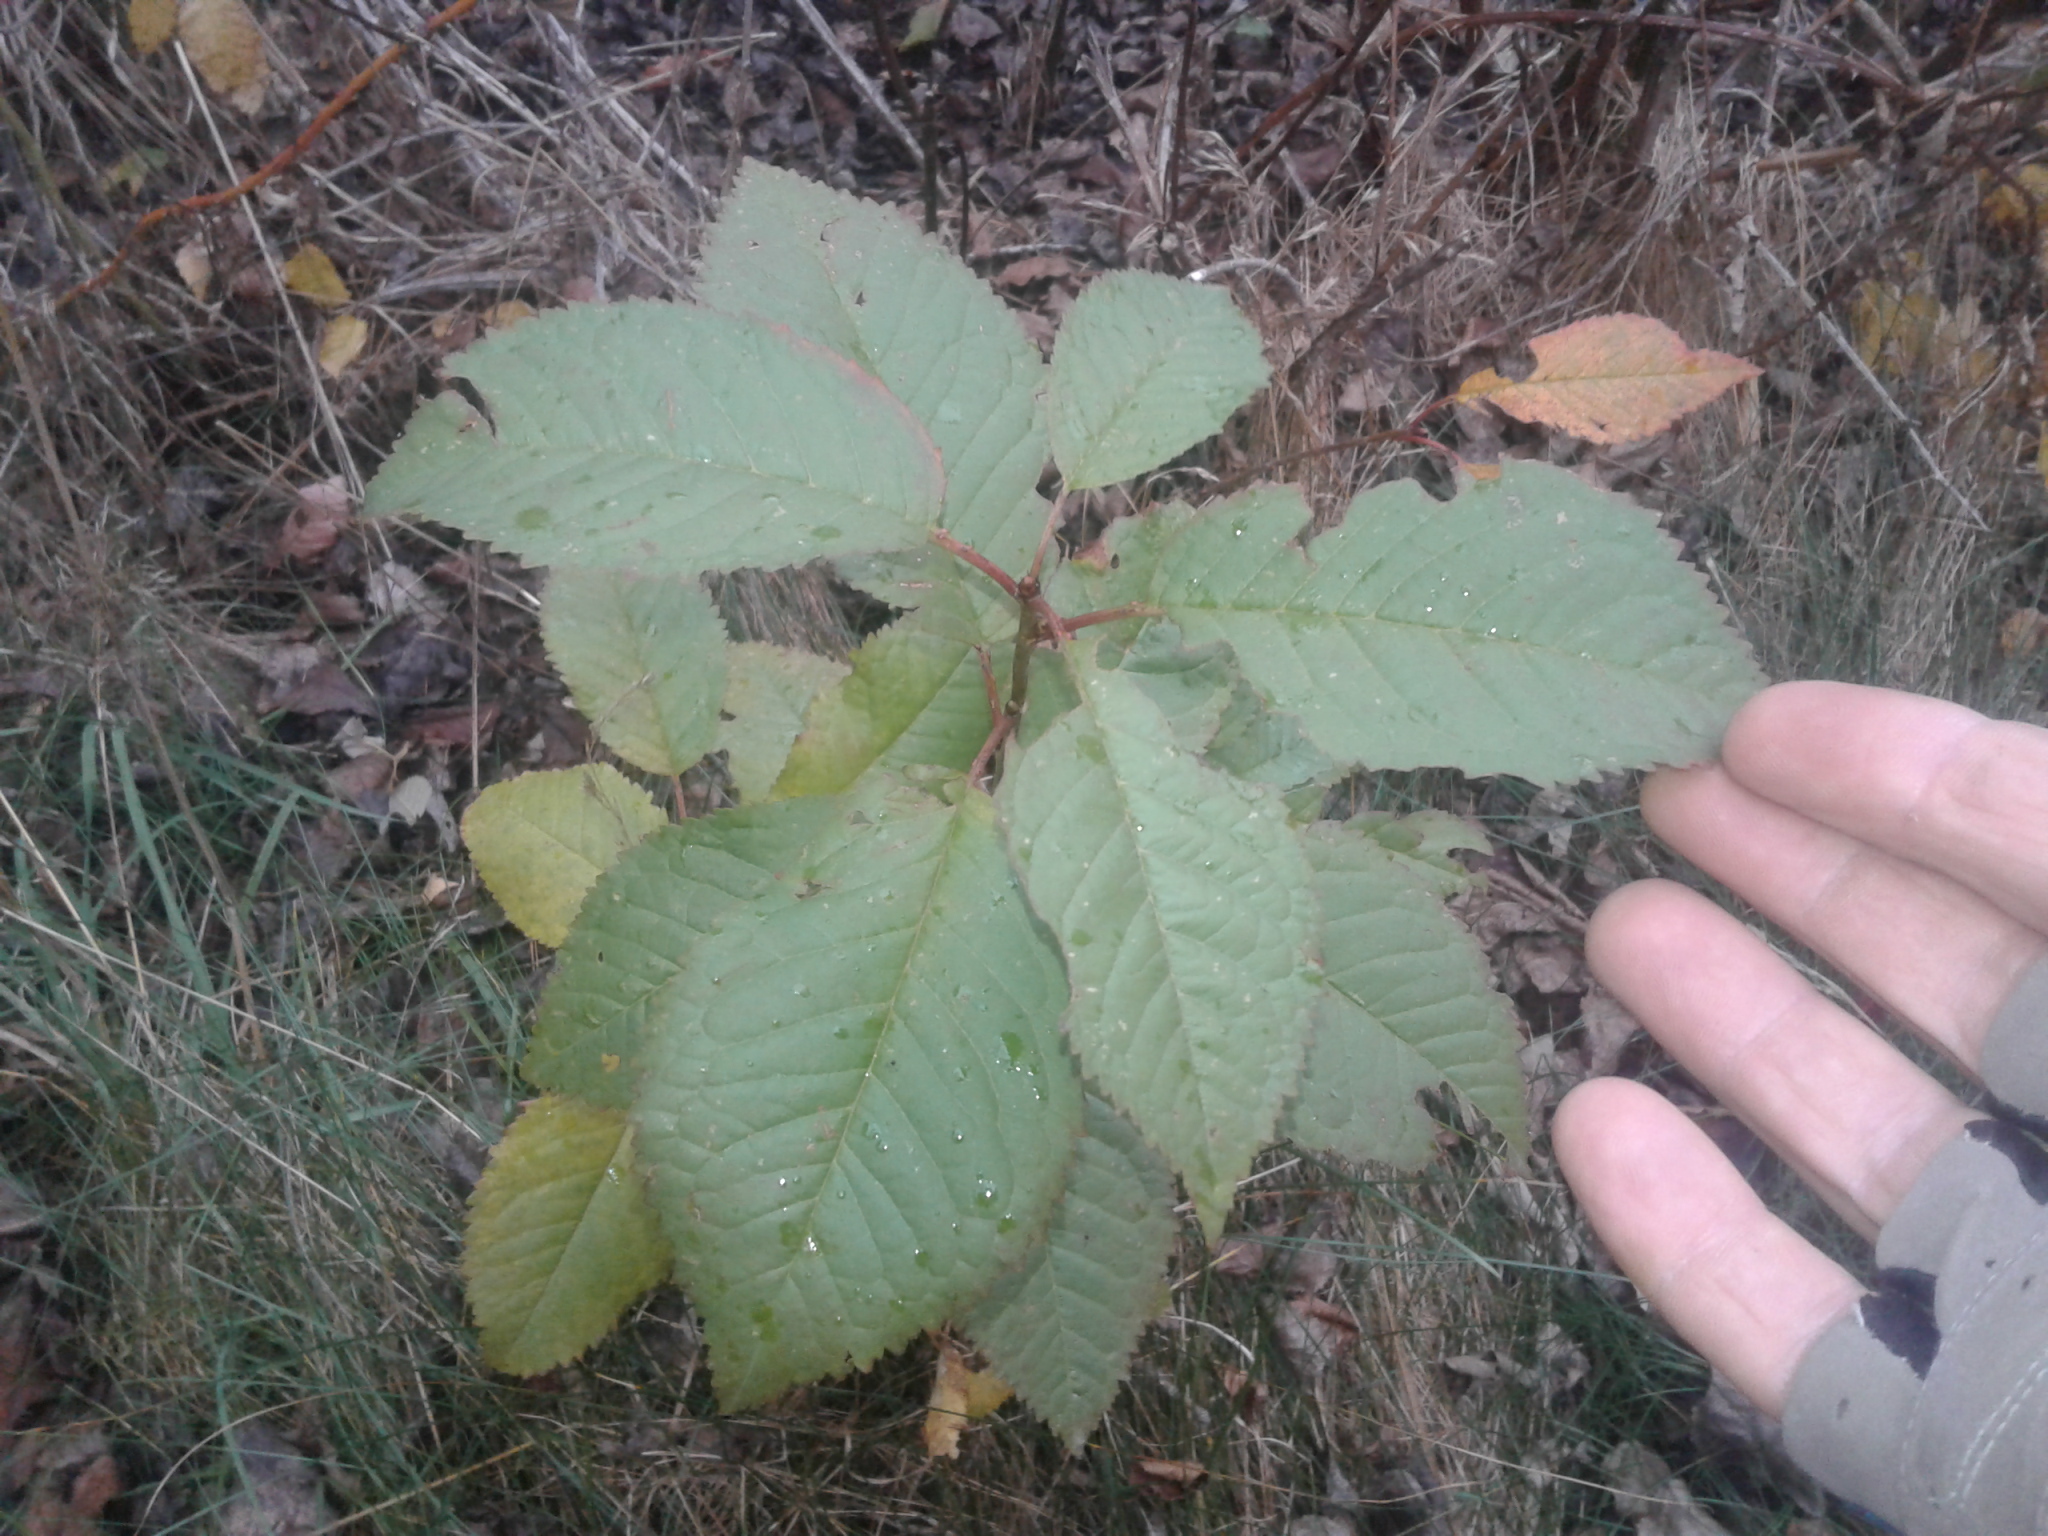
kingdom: Plantae
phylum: Tracheophyta
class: Magnoliopsida
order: Rosales
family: Rosaceae
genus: Prunus
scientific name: Prunus avium
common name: Sweet cherry
